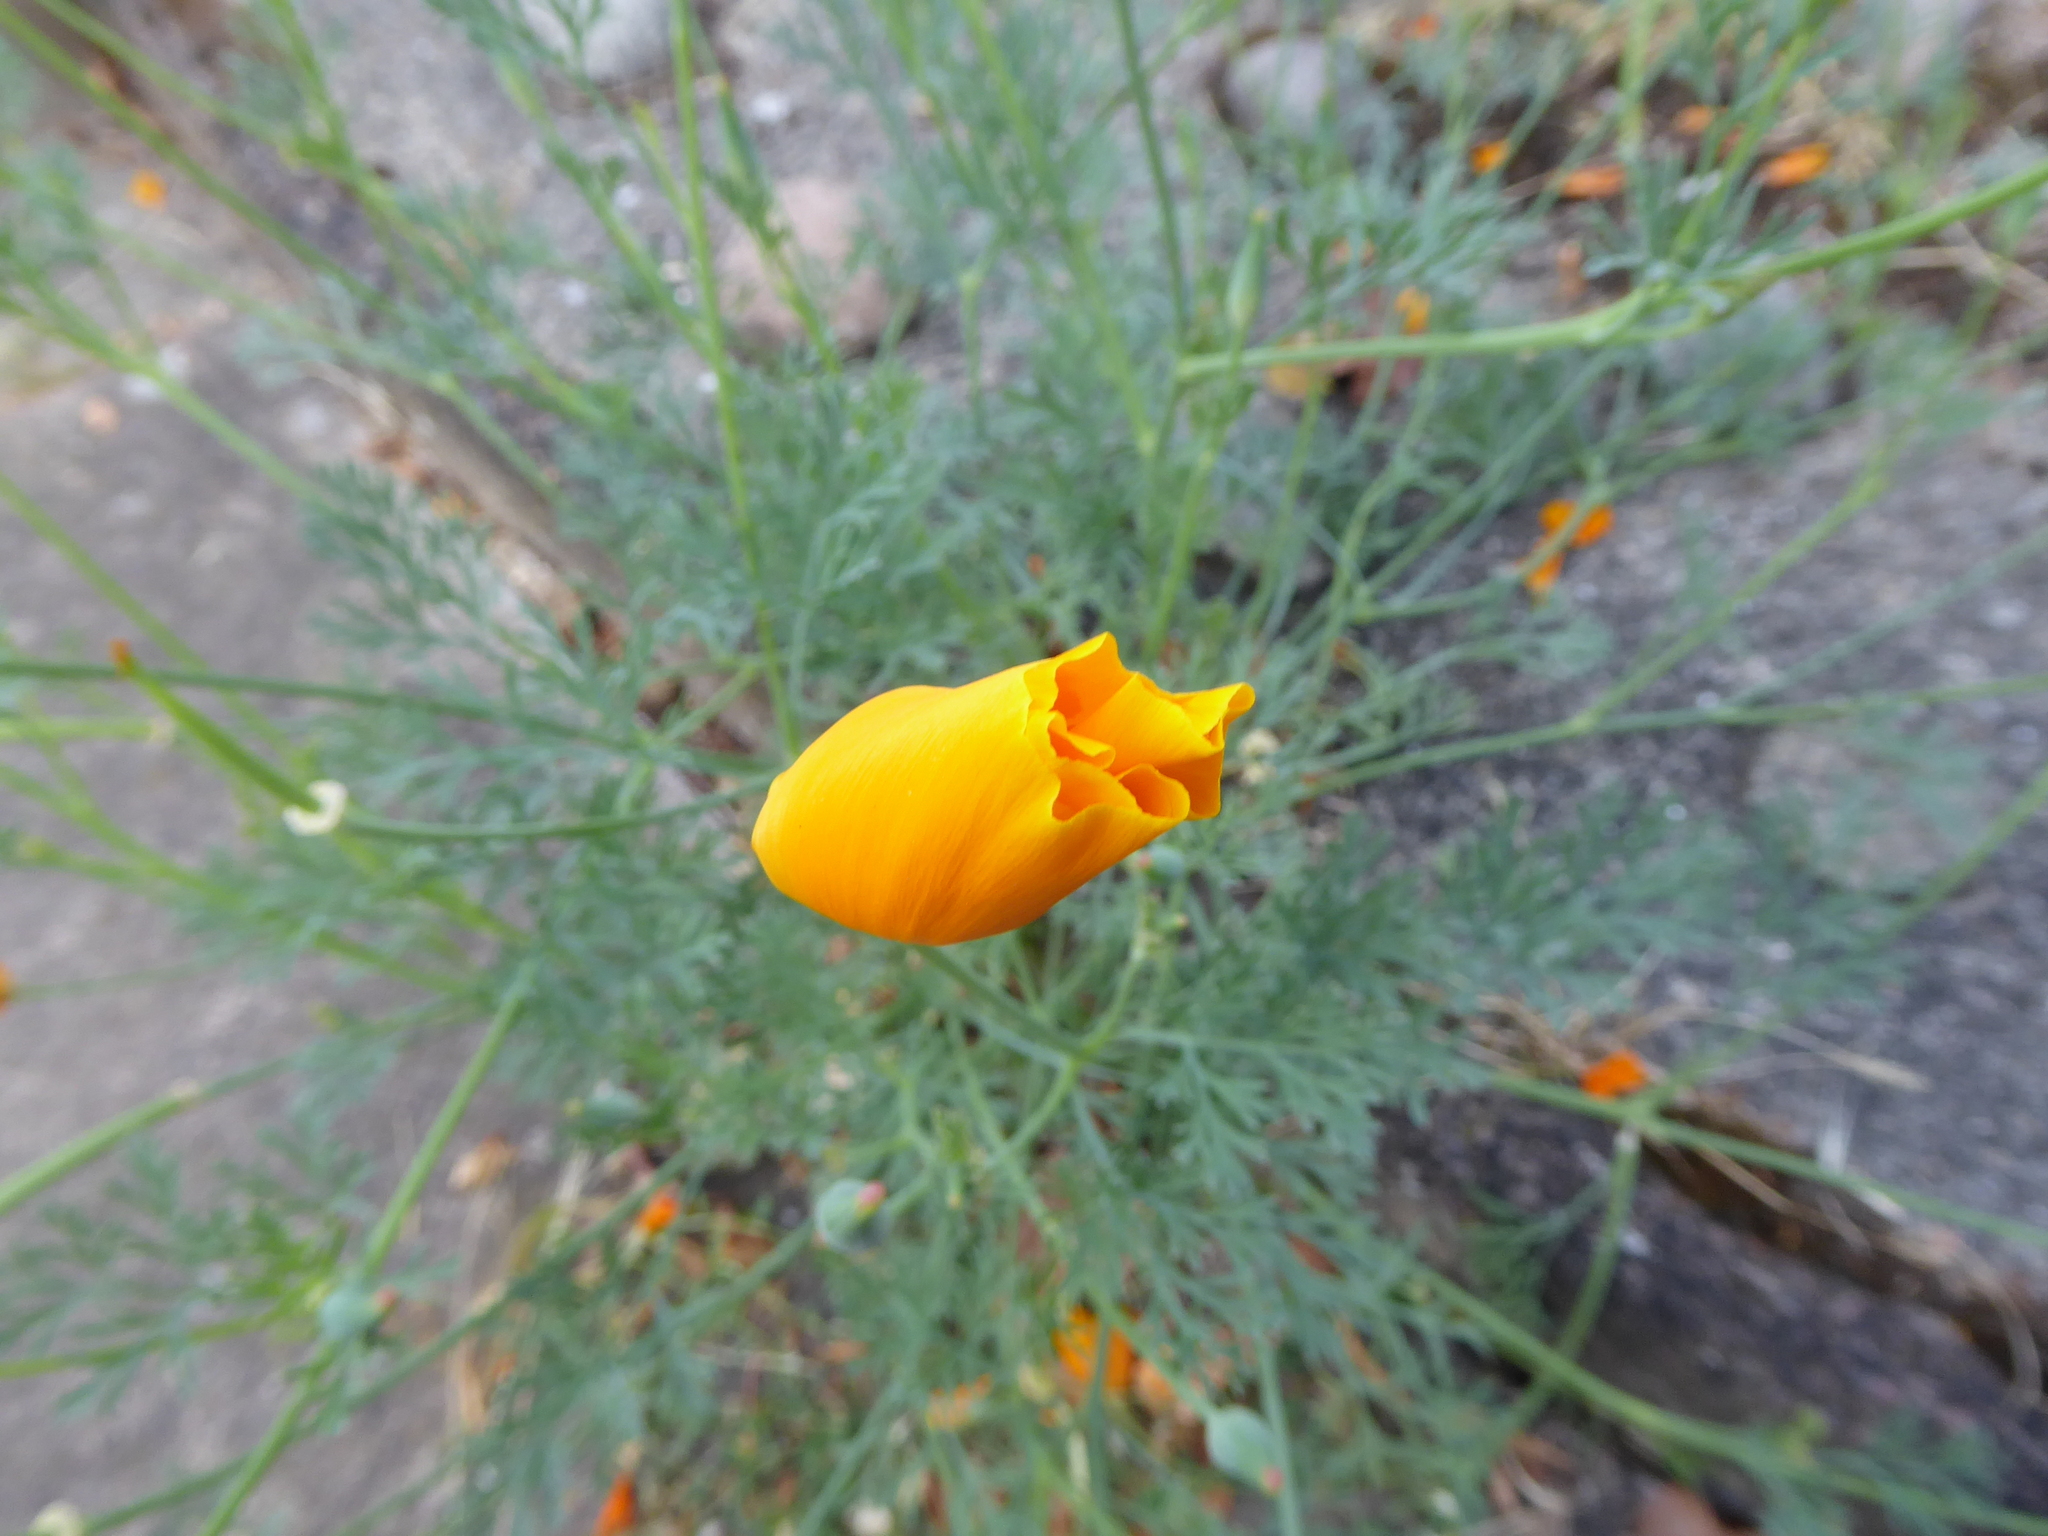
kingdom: Plantae
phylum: Tracheophyta
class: Magnoliopsida
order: Ranunculales
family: Papaveraceae
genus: Eschscholzia
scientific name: Eschscholzia californica
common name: California poppy
